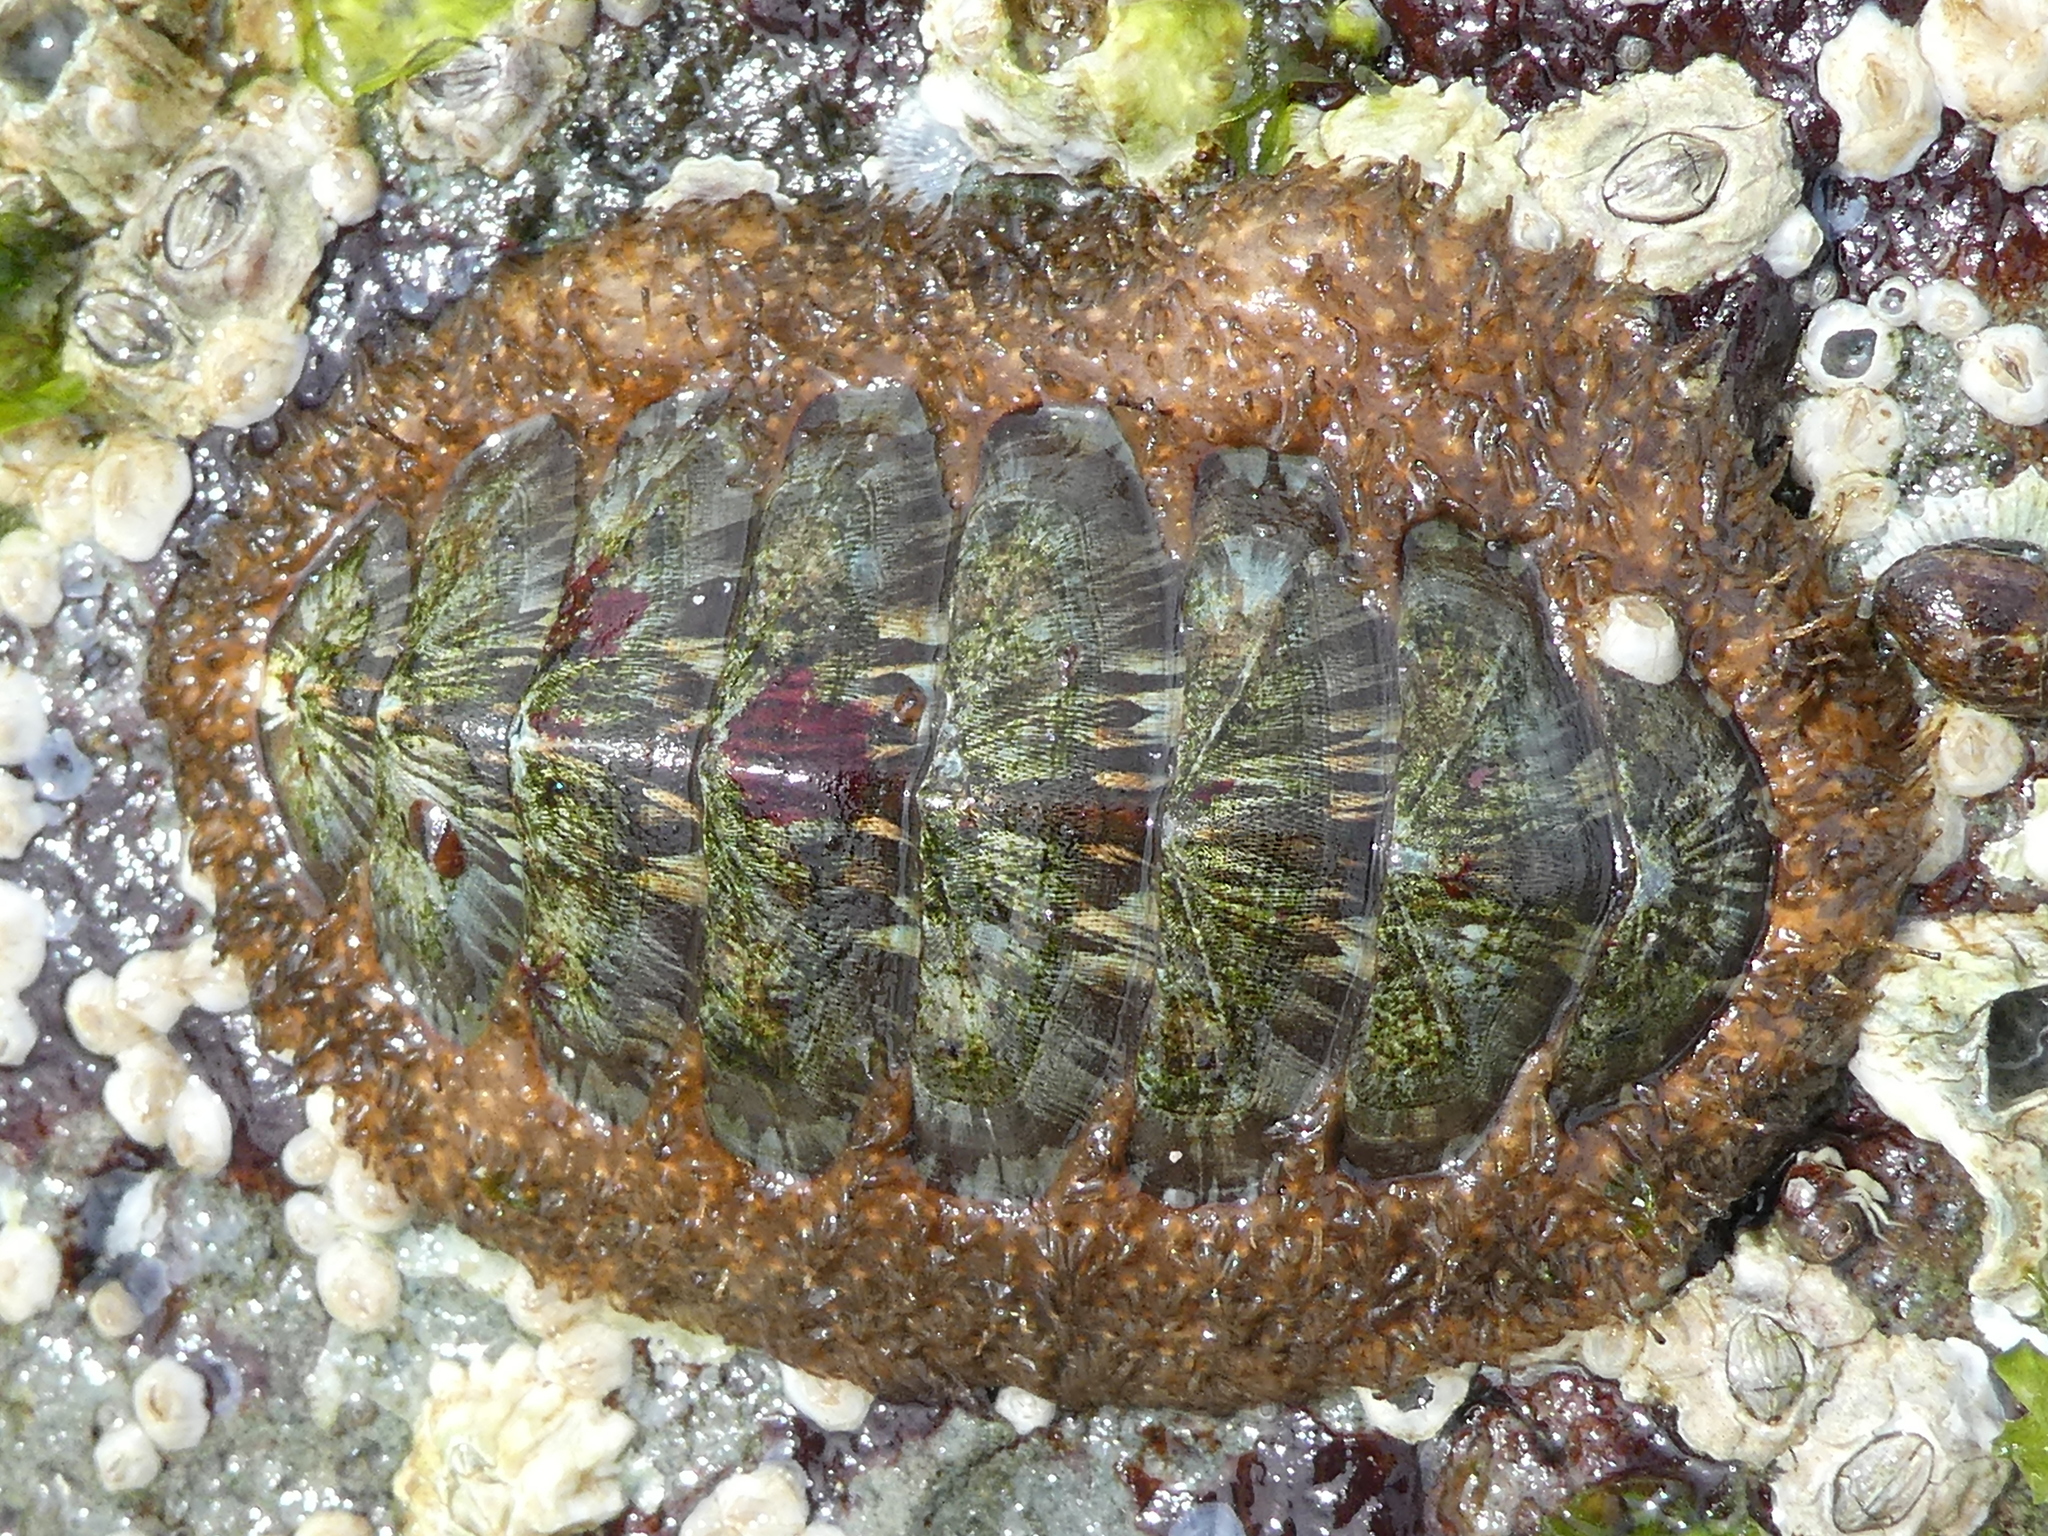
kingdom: Animalia
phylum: Mollusca
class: Polyplacophora
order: Chitonida
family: Mopaliidae
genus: Mopalia
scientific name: Mopalia lignosa
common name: Woody chiton
